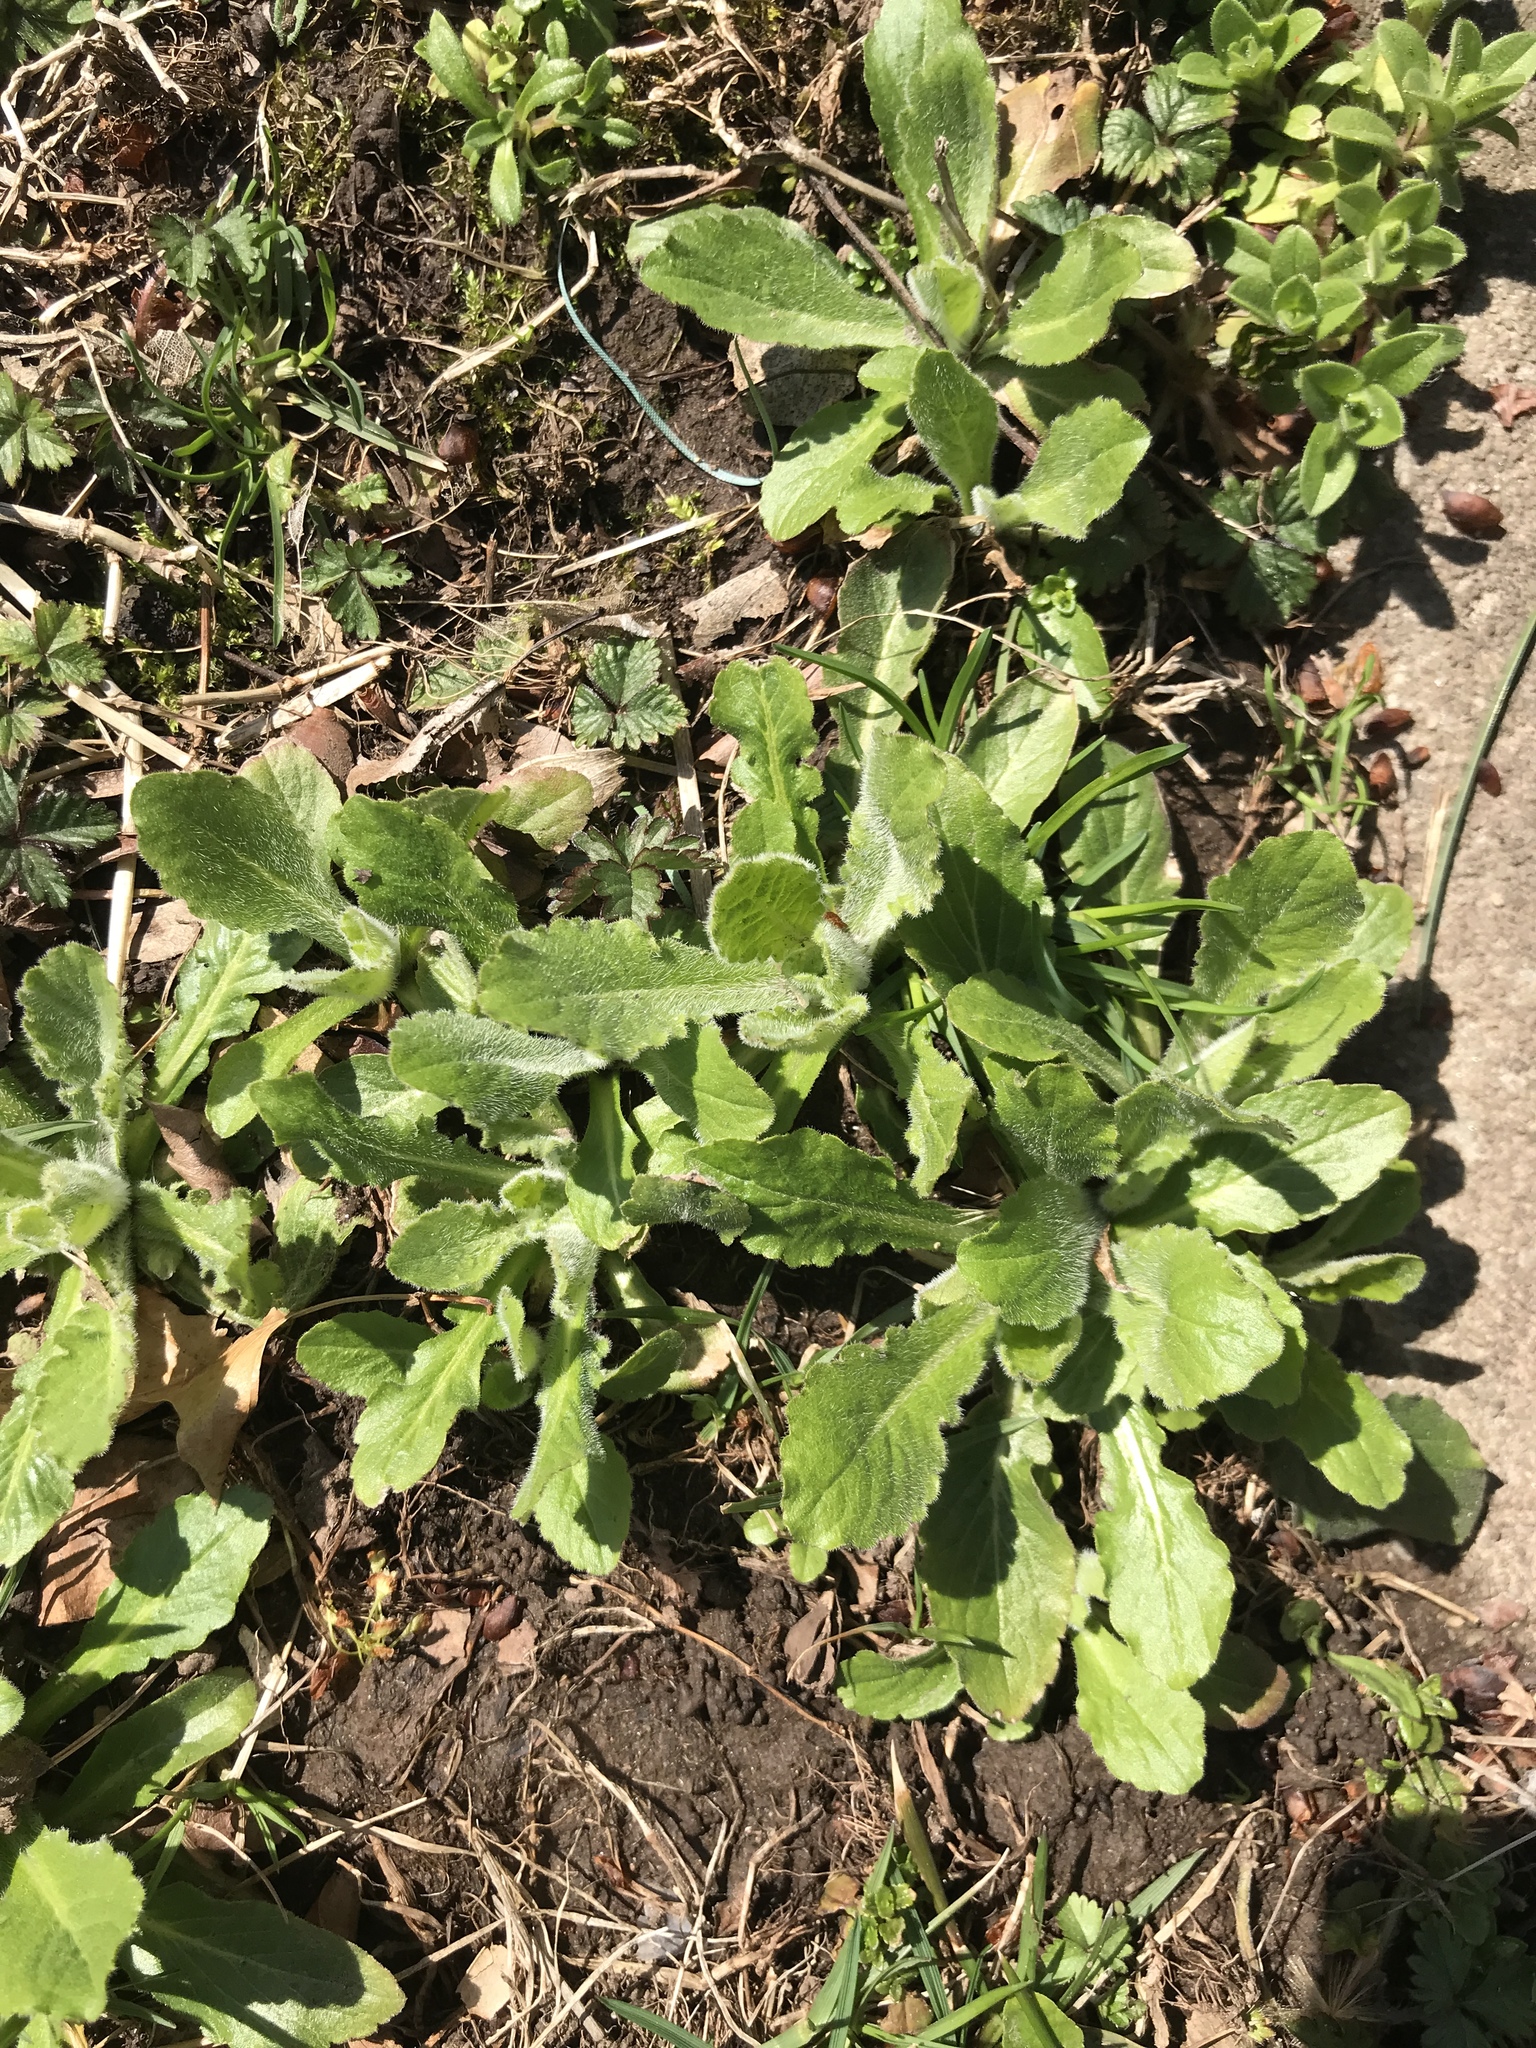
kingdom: Plantae
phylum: Tracheophyta
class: Magnoliopsida
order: Asterales
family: Asteraceae
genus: Erigeron
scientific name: Erigeron pulchellus
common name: Hairy fleabane
